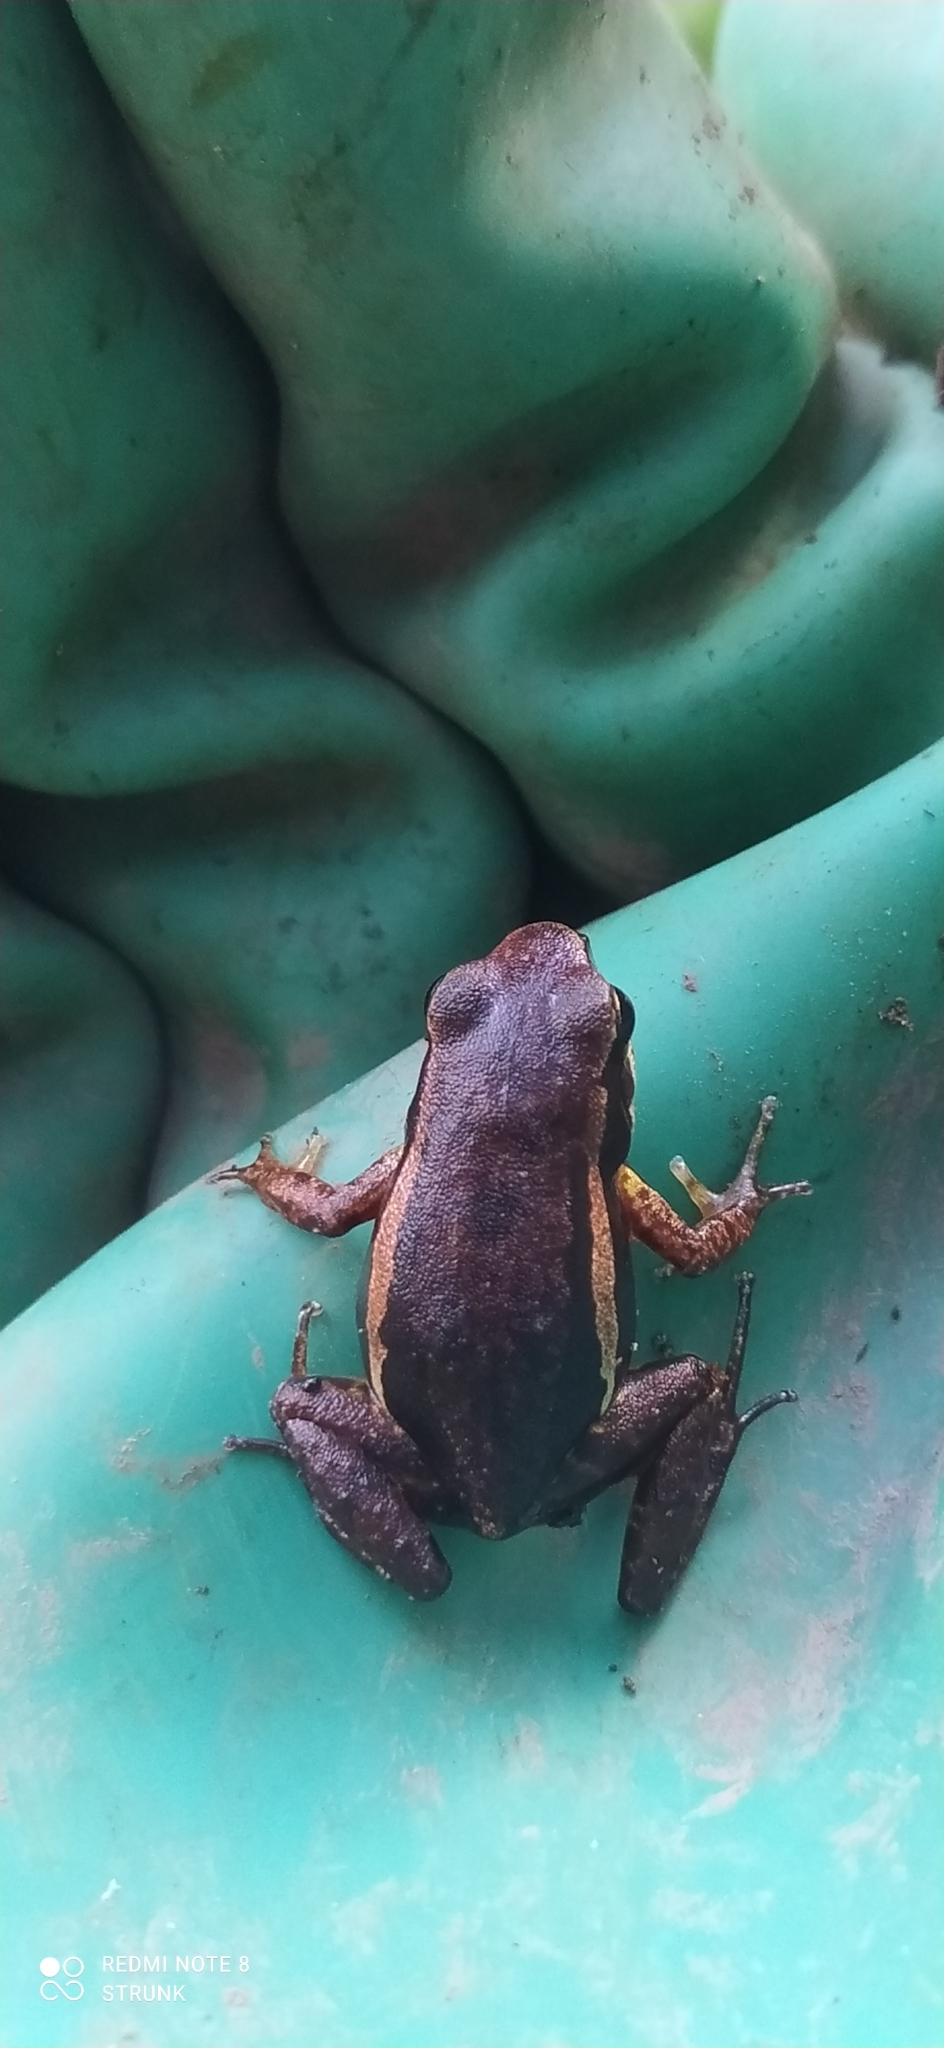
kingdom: Animalia
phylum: Chordata
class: Amphibia
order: Anura
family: Aromobatidae
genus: Allobates
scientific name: Allobates niputidea
